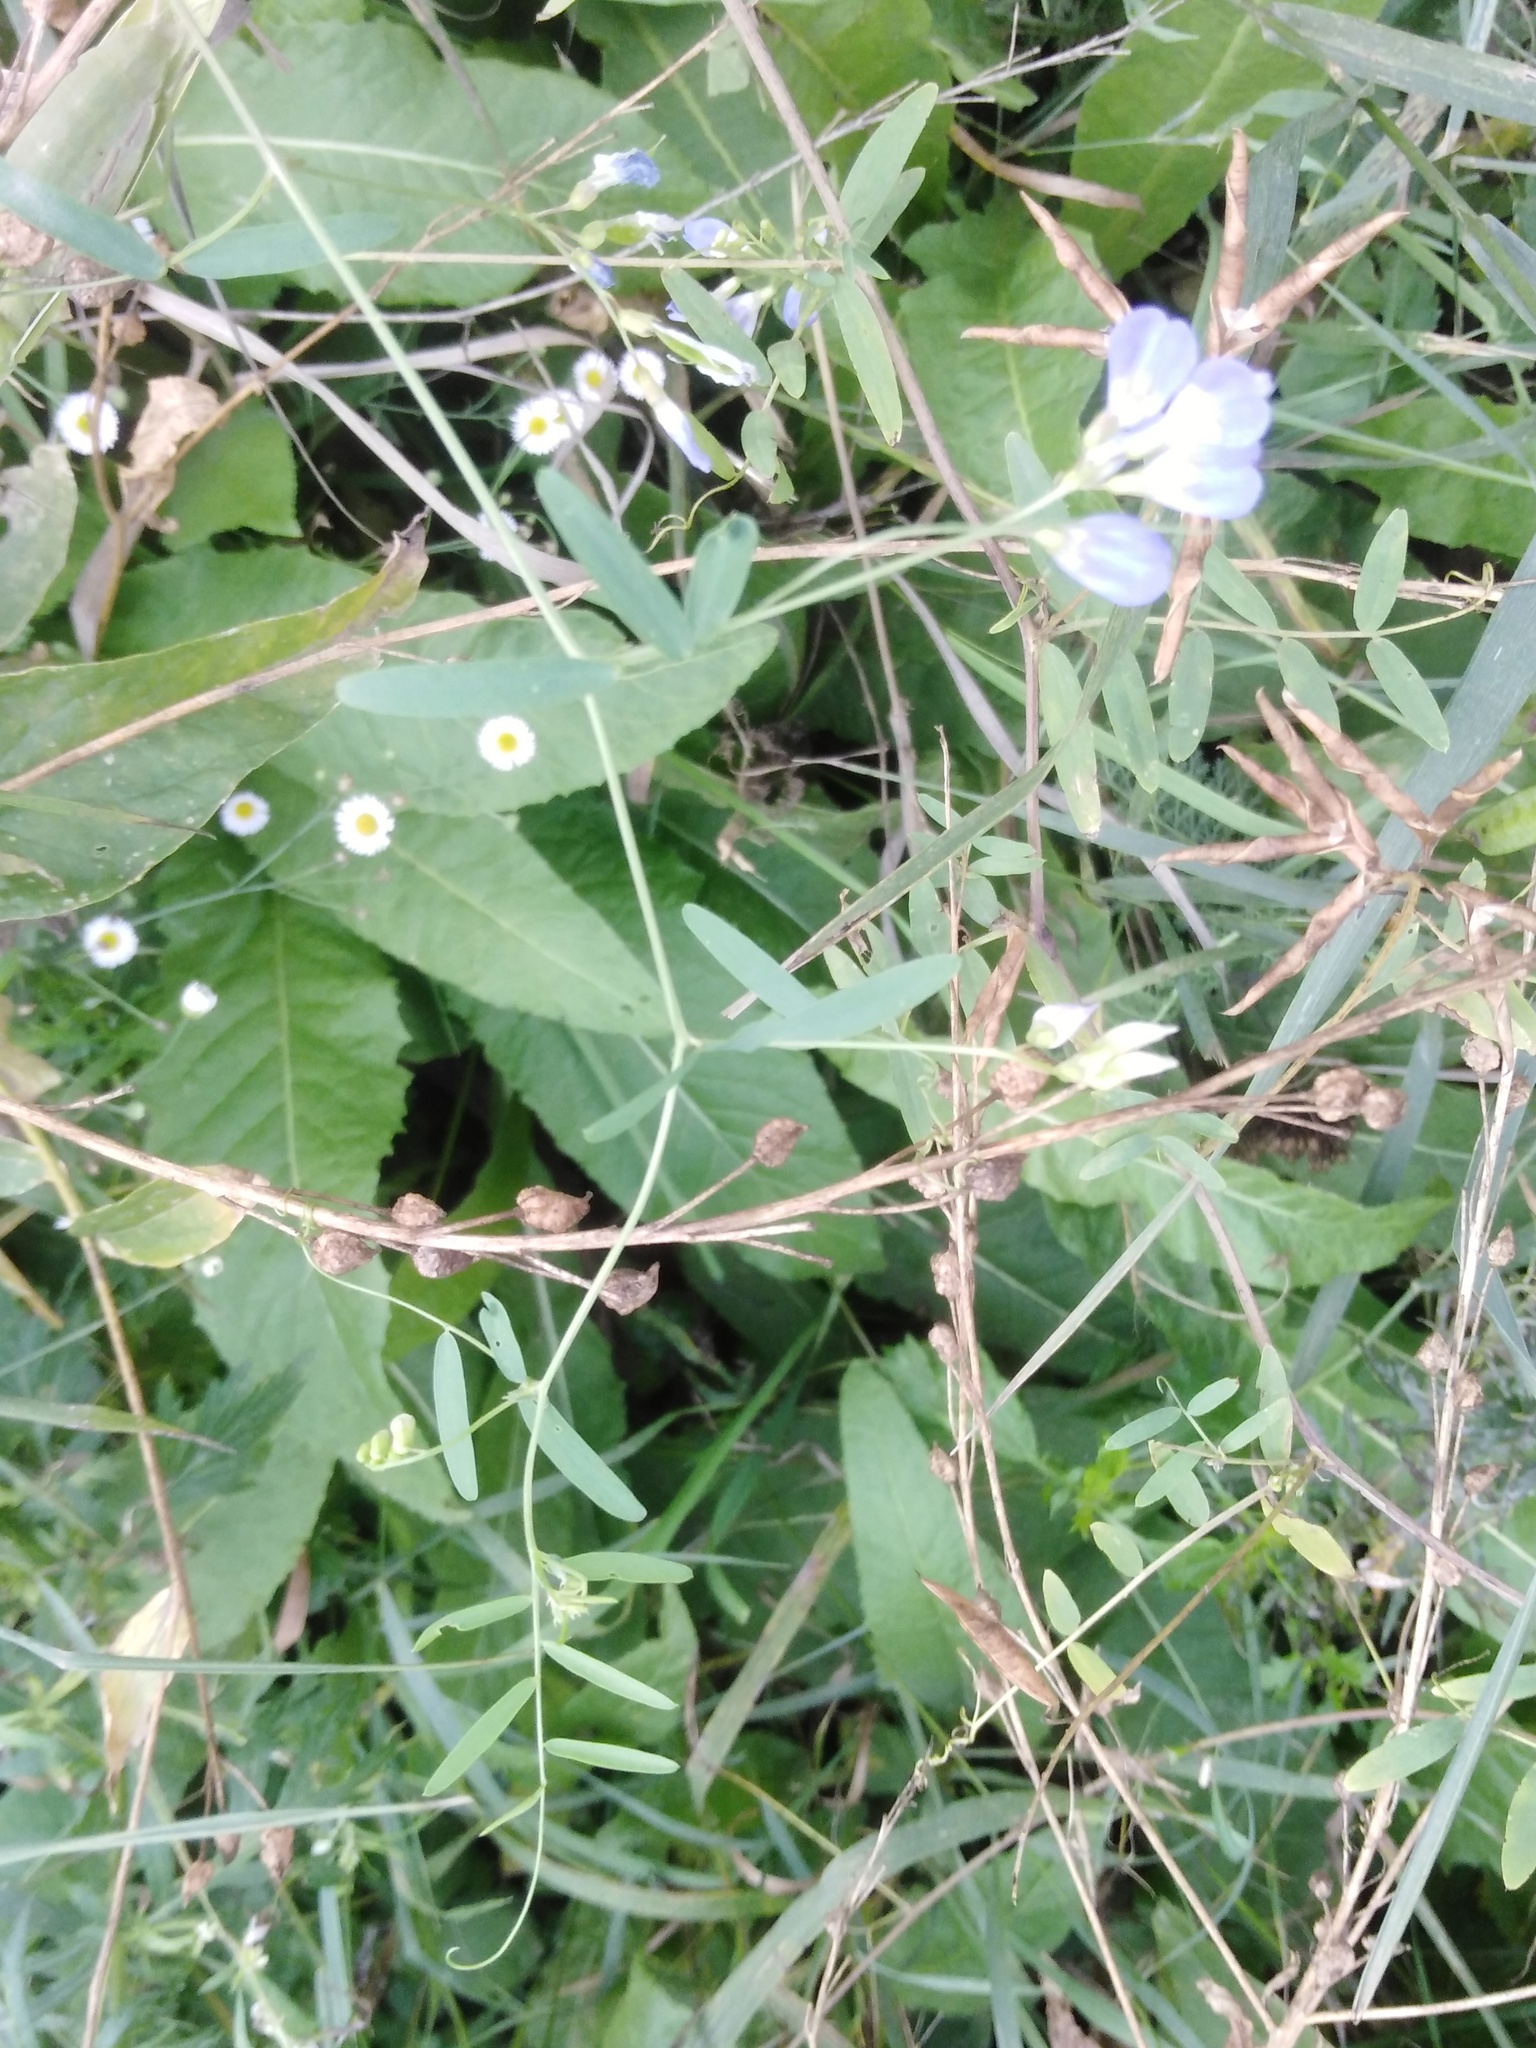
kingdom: Plantae
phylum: Tracheophyta
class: Magnoliopsida
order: Fabales
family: Fabaceae
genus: Vicia
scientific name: Vicia biennis
